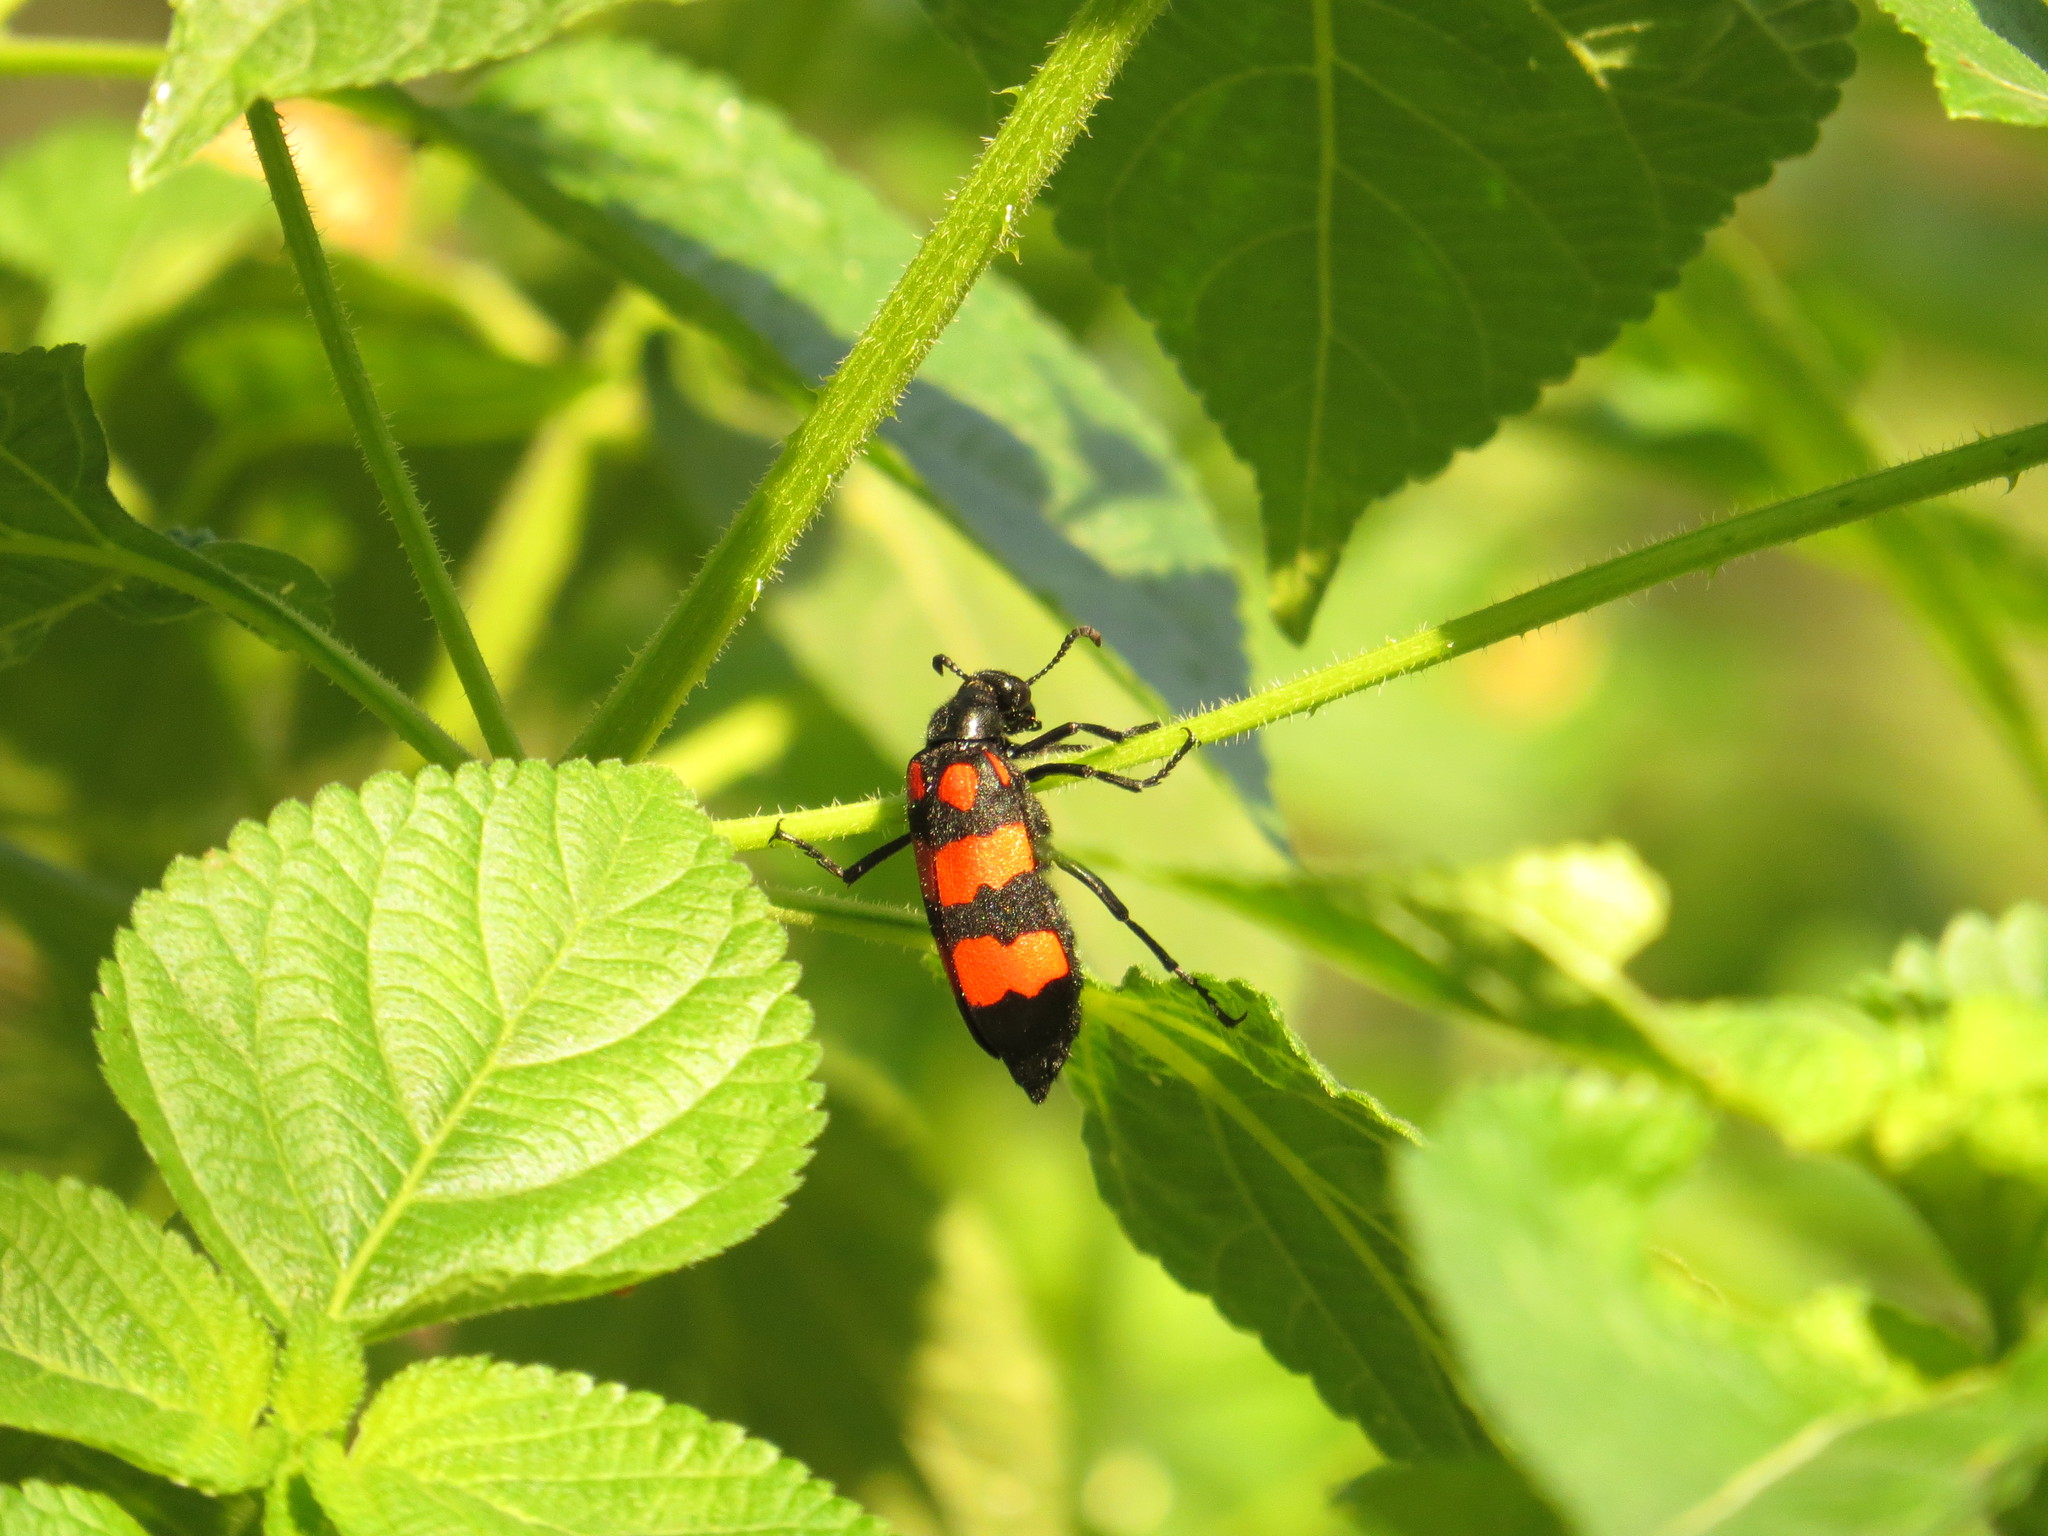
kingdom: Animalia
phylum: Arthropoda
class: Insecta
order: Coleoptera
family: Meloidae
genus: Hycleus
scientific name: Hycleus phaleratus
